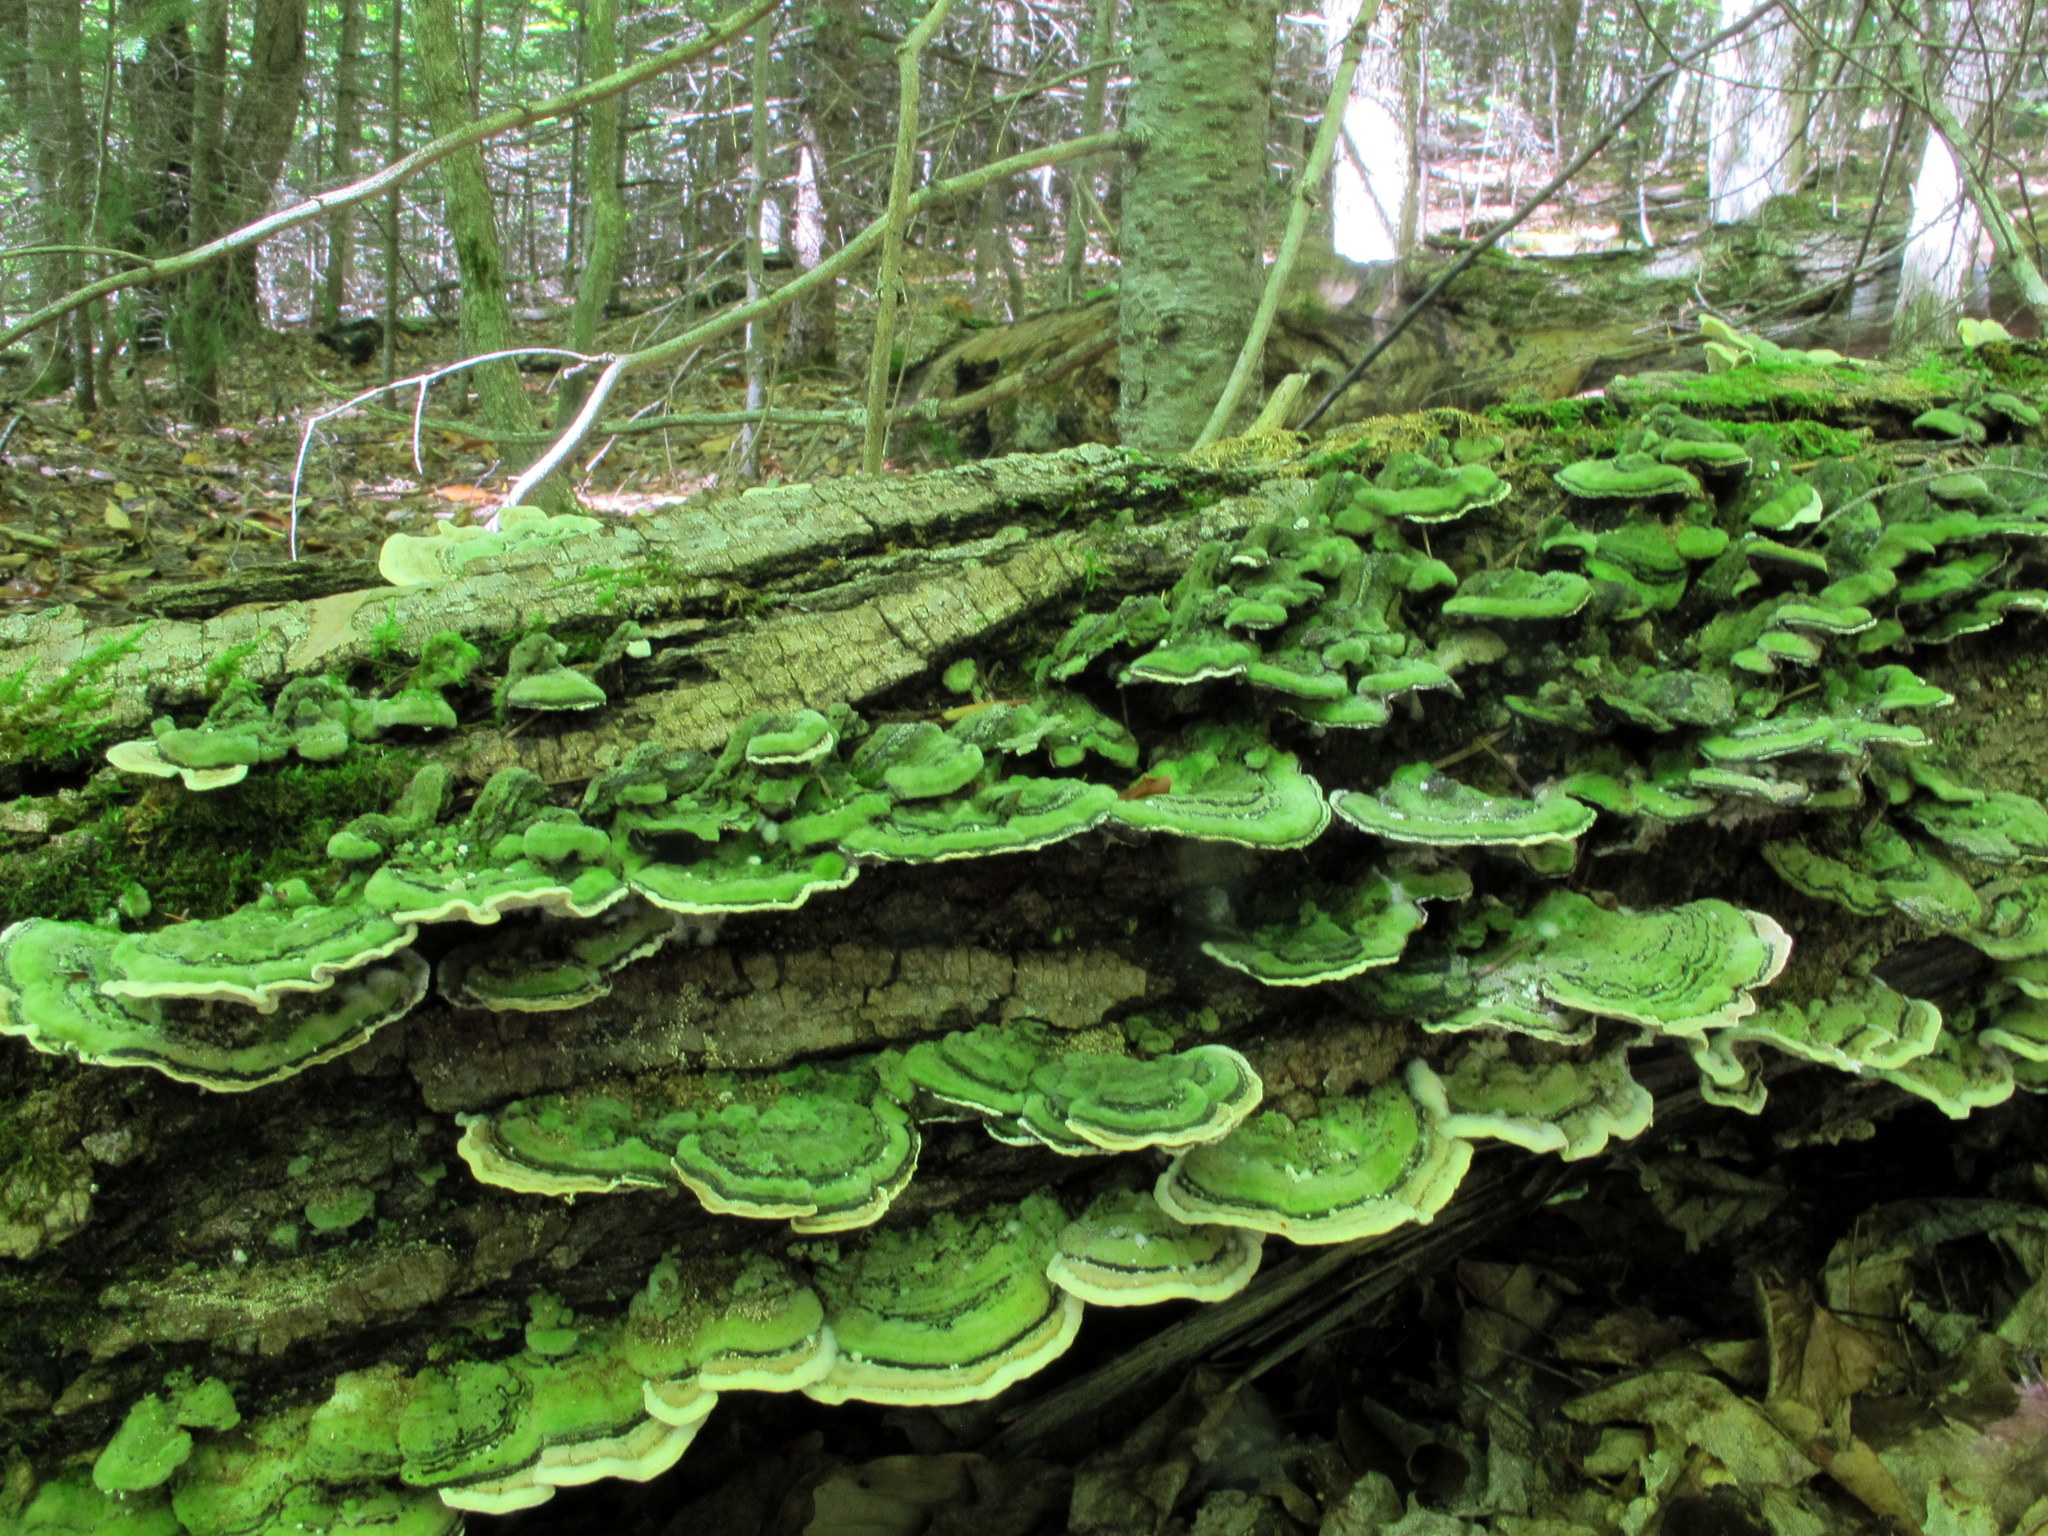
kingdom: Fungi
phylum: Basidiomycota
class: Agaricomycetes
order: Polyporales
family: Cerrenaceae
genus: Cerrena
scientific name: Cerrena unicolor
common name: Mossy maze polypore
